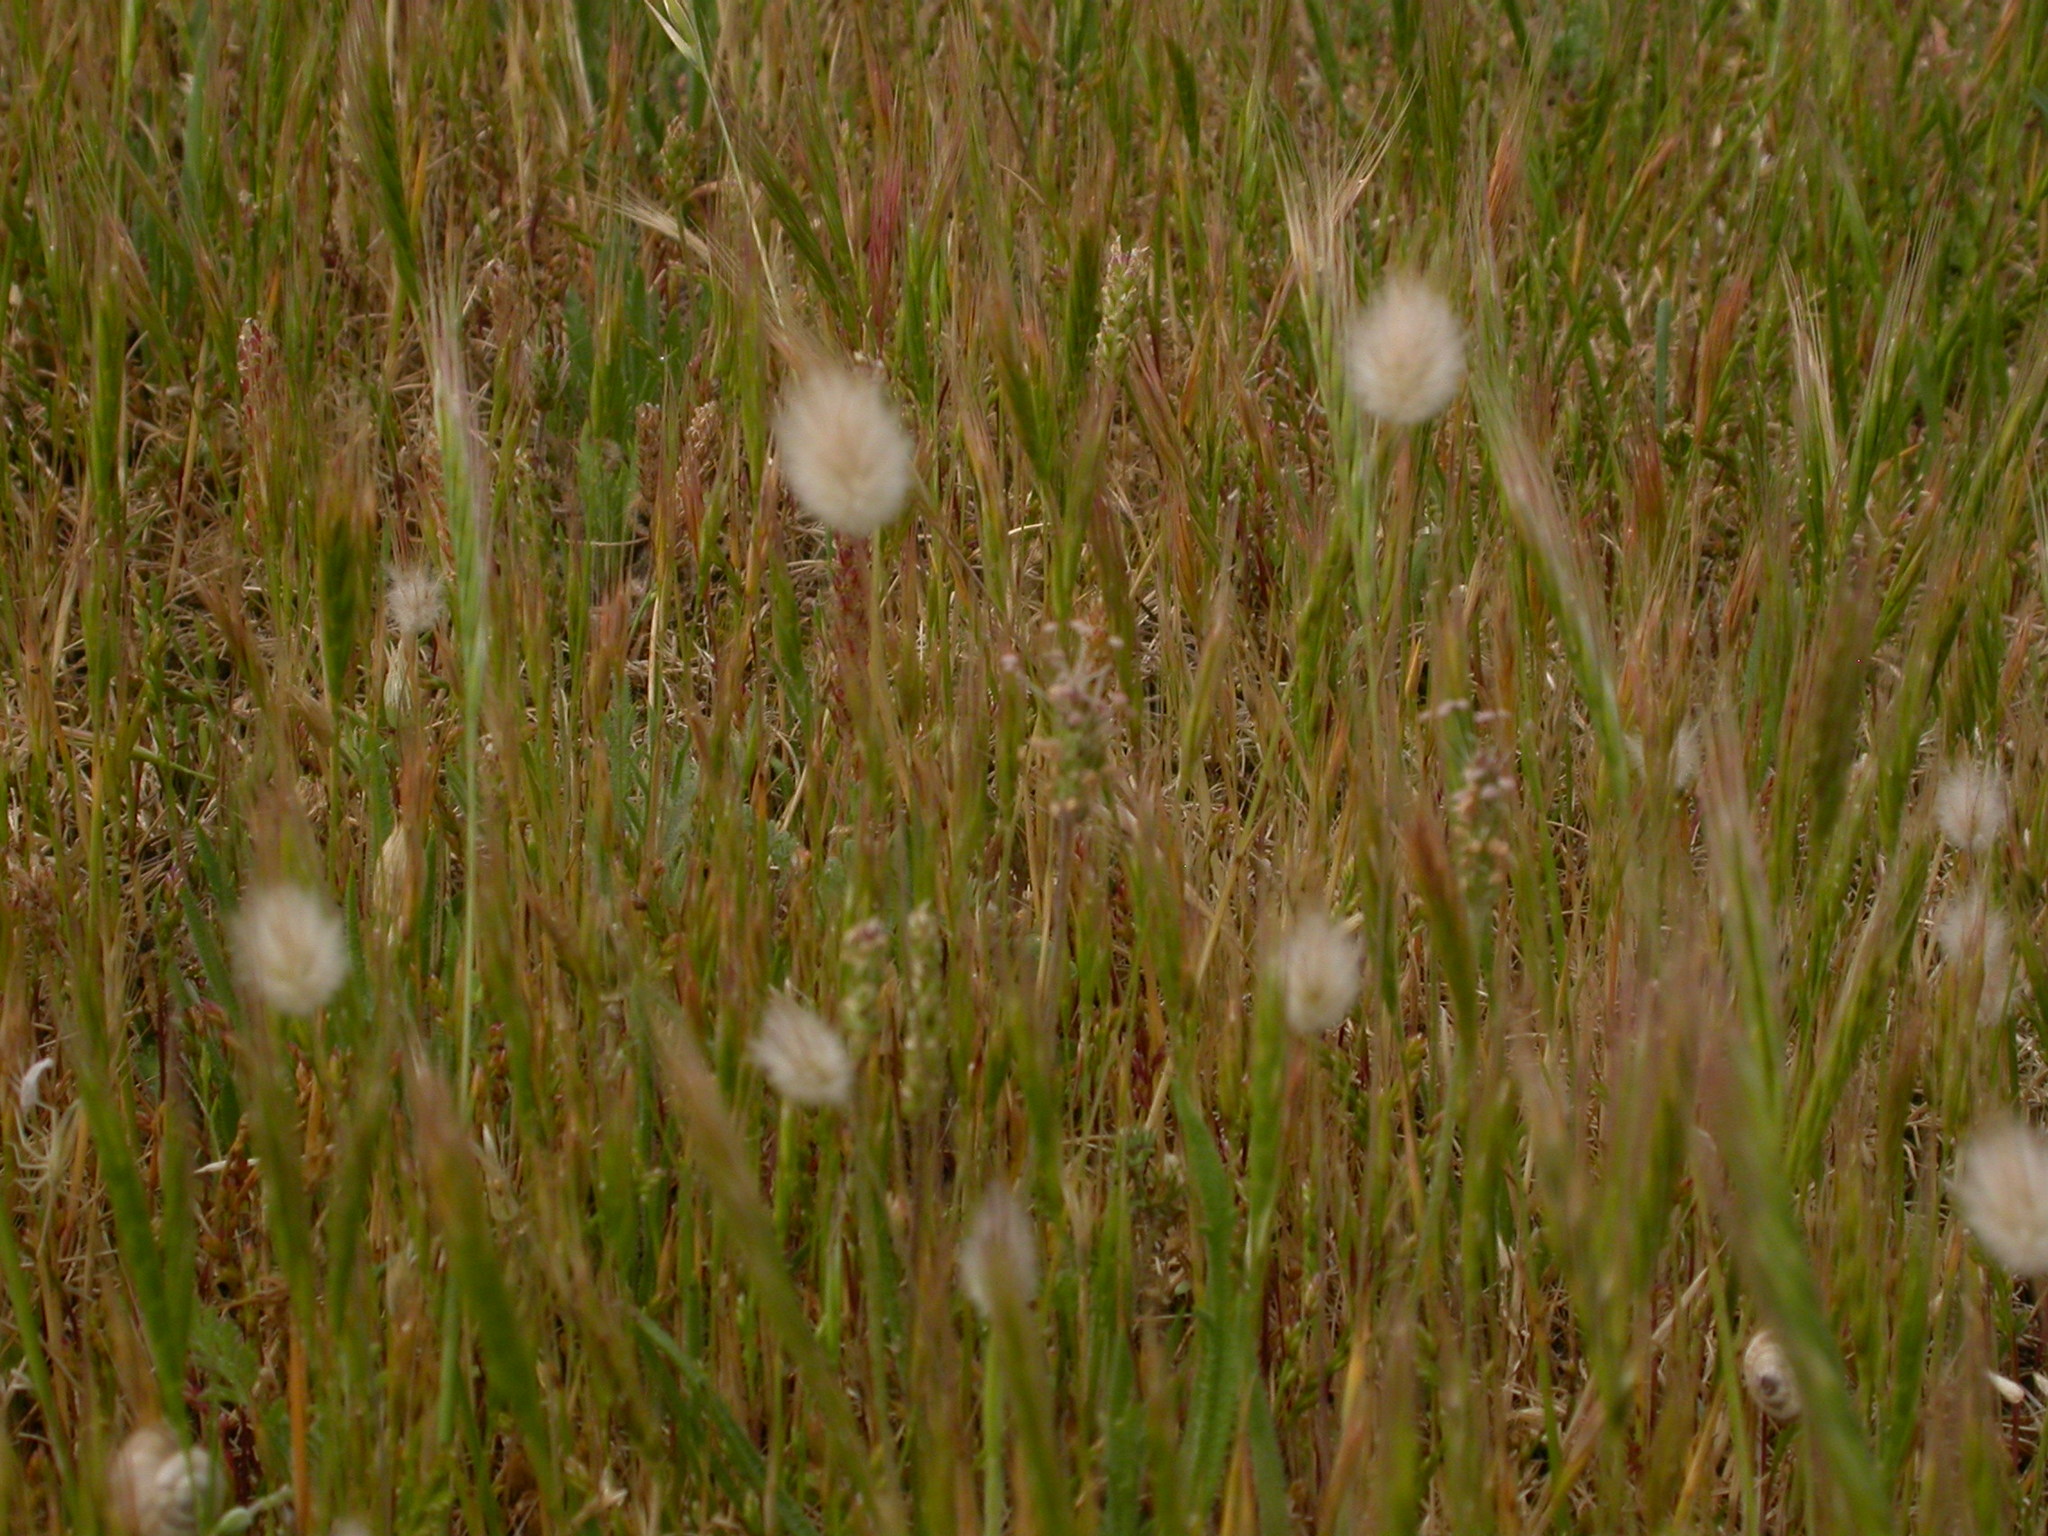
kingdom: Plantae
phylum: Tracheophyta
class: Liliopsida
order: Poales
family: Poaceae
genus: Lagurus
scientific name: Lagurus ovatus
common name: Hare's-tail
